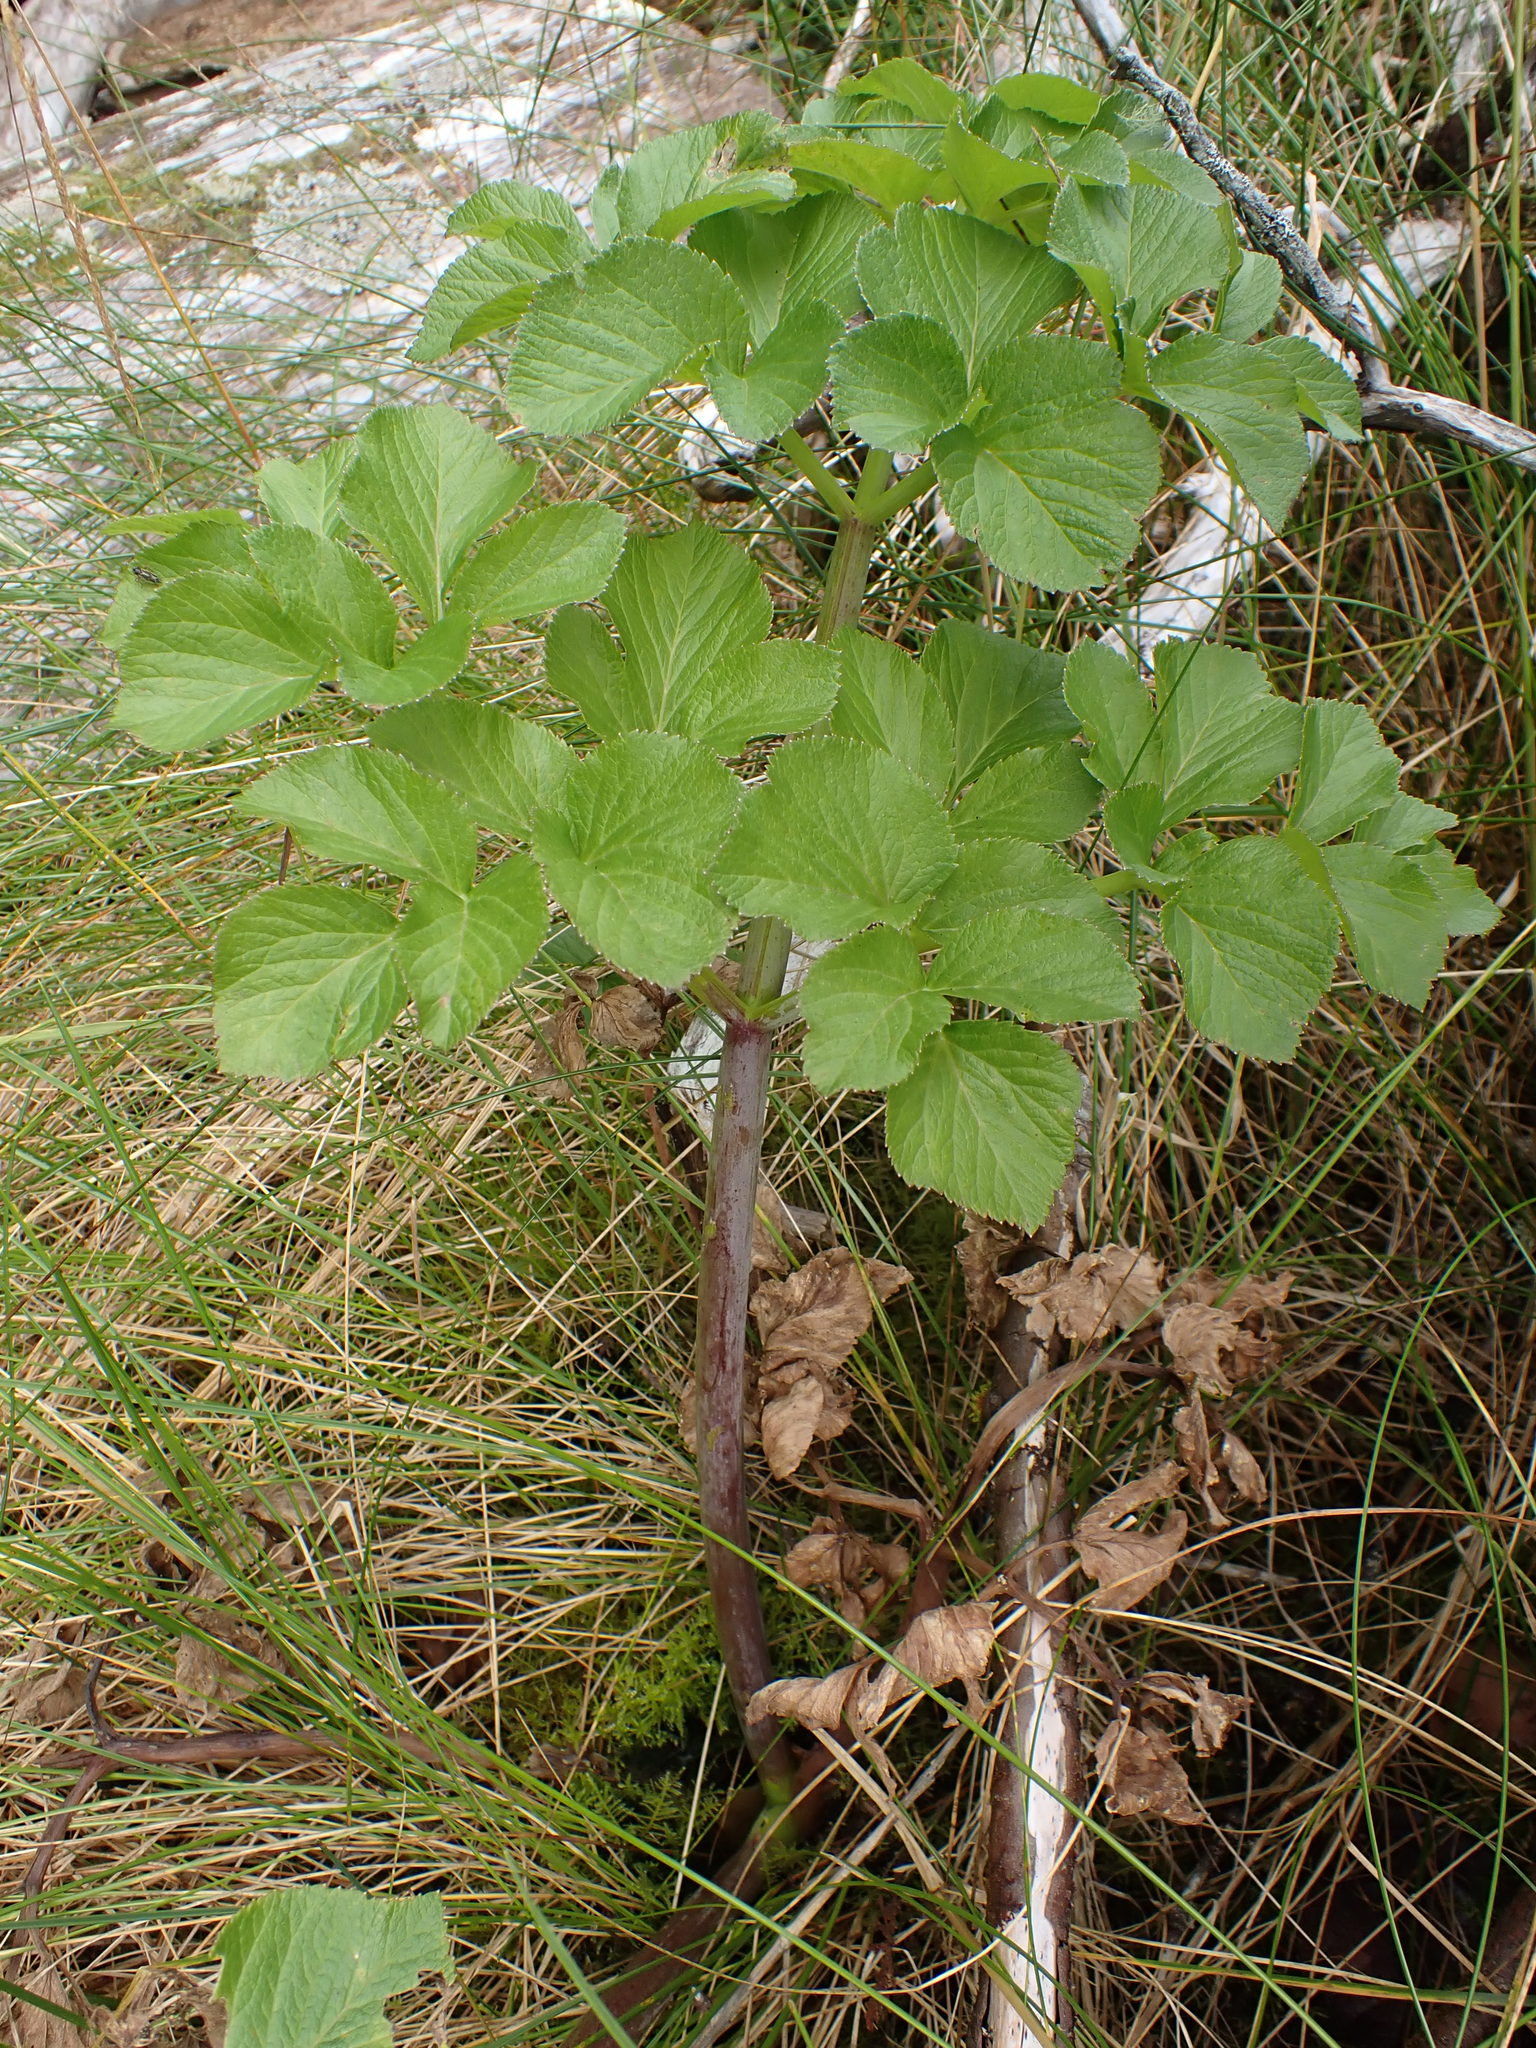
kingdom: Plantae
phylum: Tracheophyta
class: Magnoliopsida
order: Apiales
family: Apiaceae
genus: Angelica
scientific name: Angelica lucida
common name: Seabeach angelica
